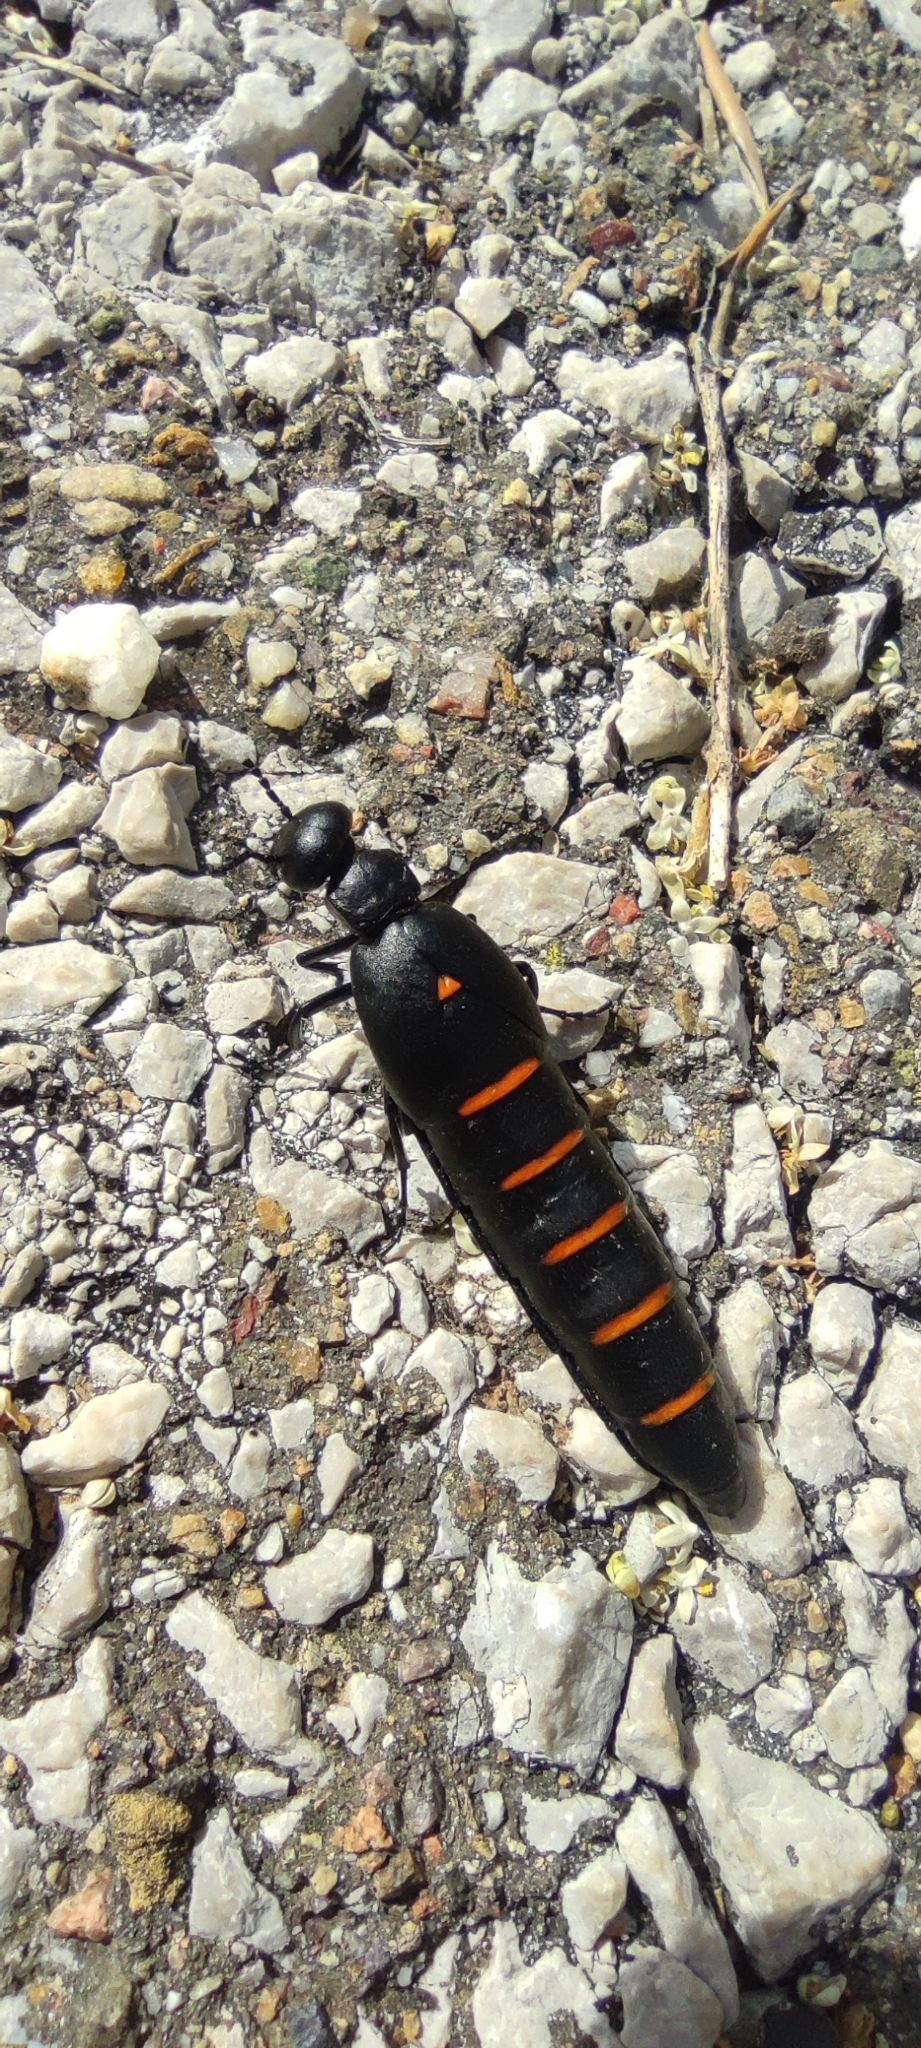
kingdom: Animalia
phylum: Arthropoda
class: Insecta
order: Coleoptera
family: Meloidae
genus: Berberomeloe
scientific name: Berberomeloe payoyo
